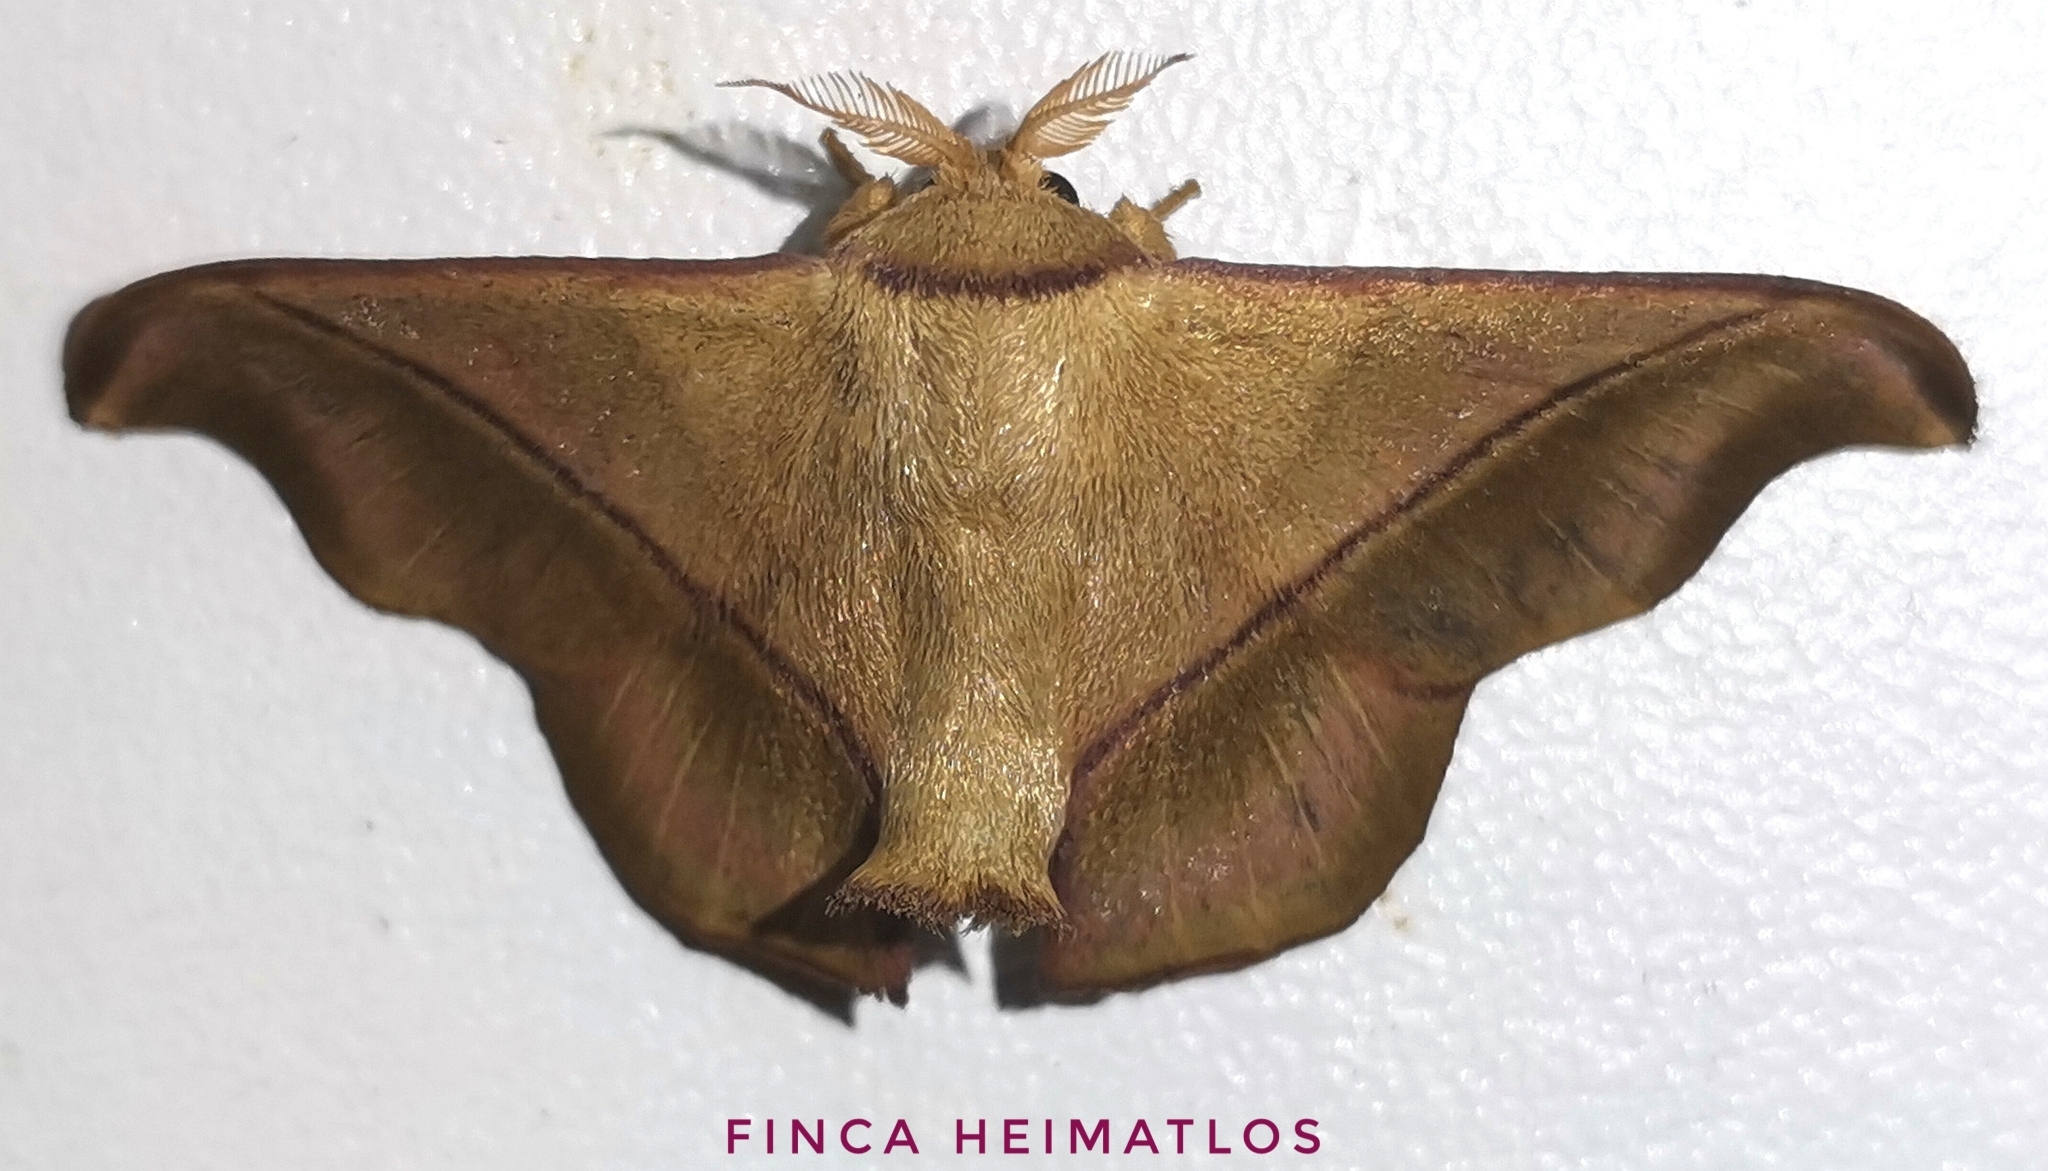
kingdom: Animalia
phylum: Arthropoda
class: Insecta
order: Lepidoptera
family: Mimallonidae
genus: Alheita
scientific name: Alheita anoca
